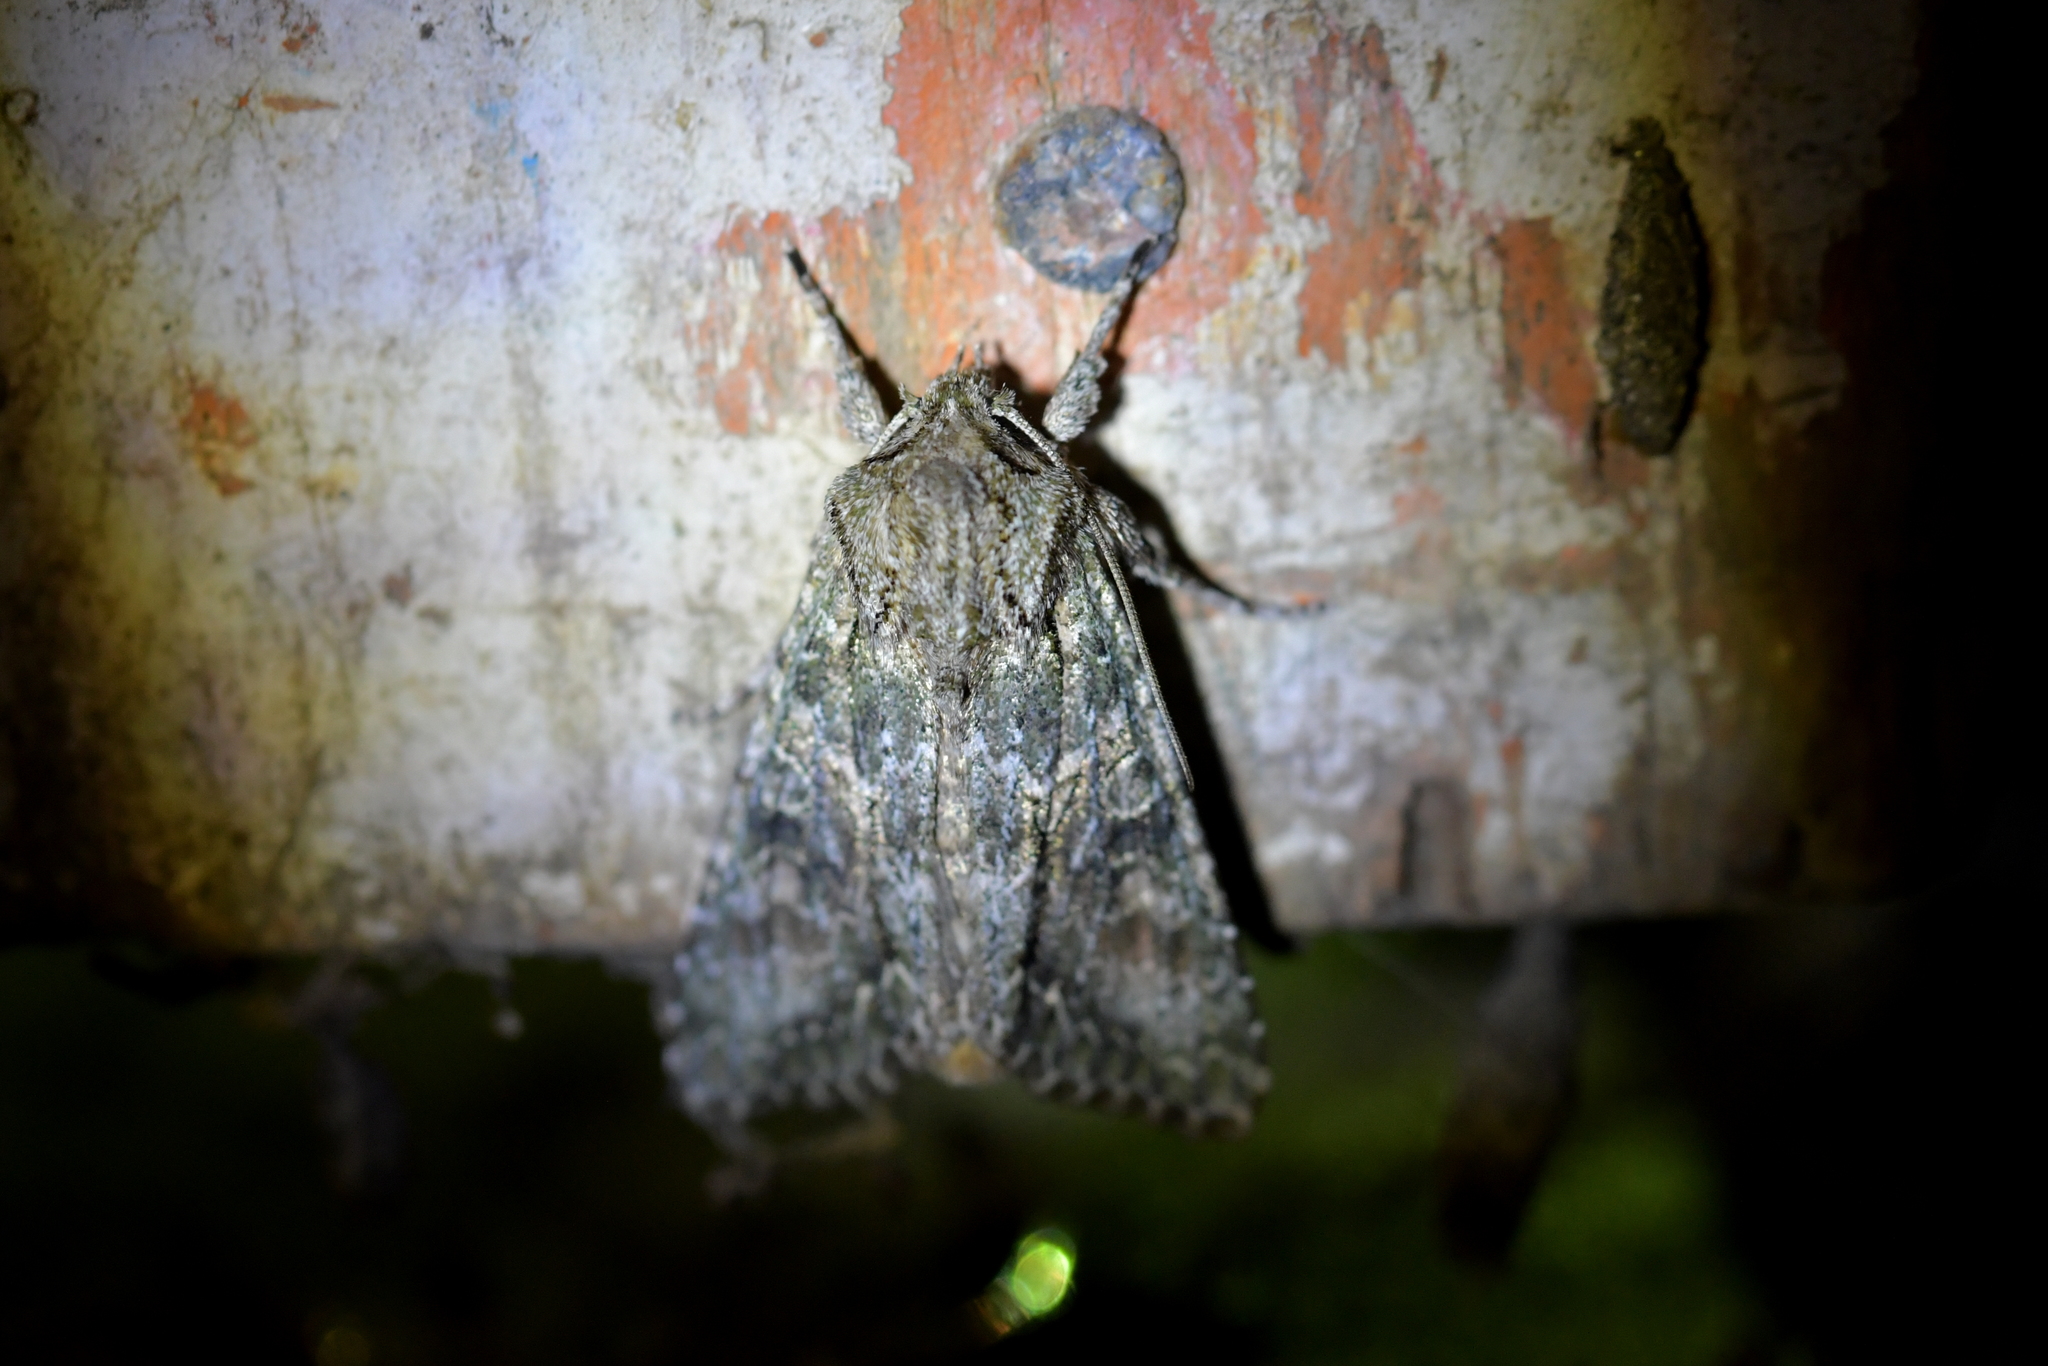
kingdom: Animalia
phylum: Arthropoda
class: Insecta
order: Lepidoptera
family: Noctuidae
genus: Ichneutica
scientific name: Ichneutica mutans
